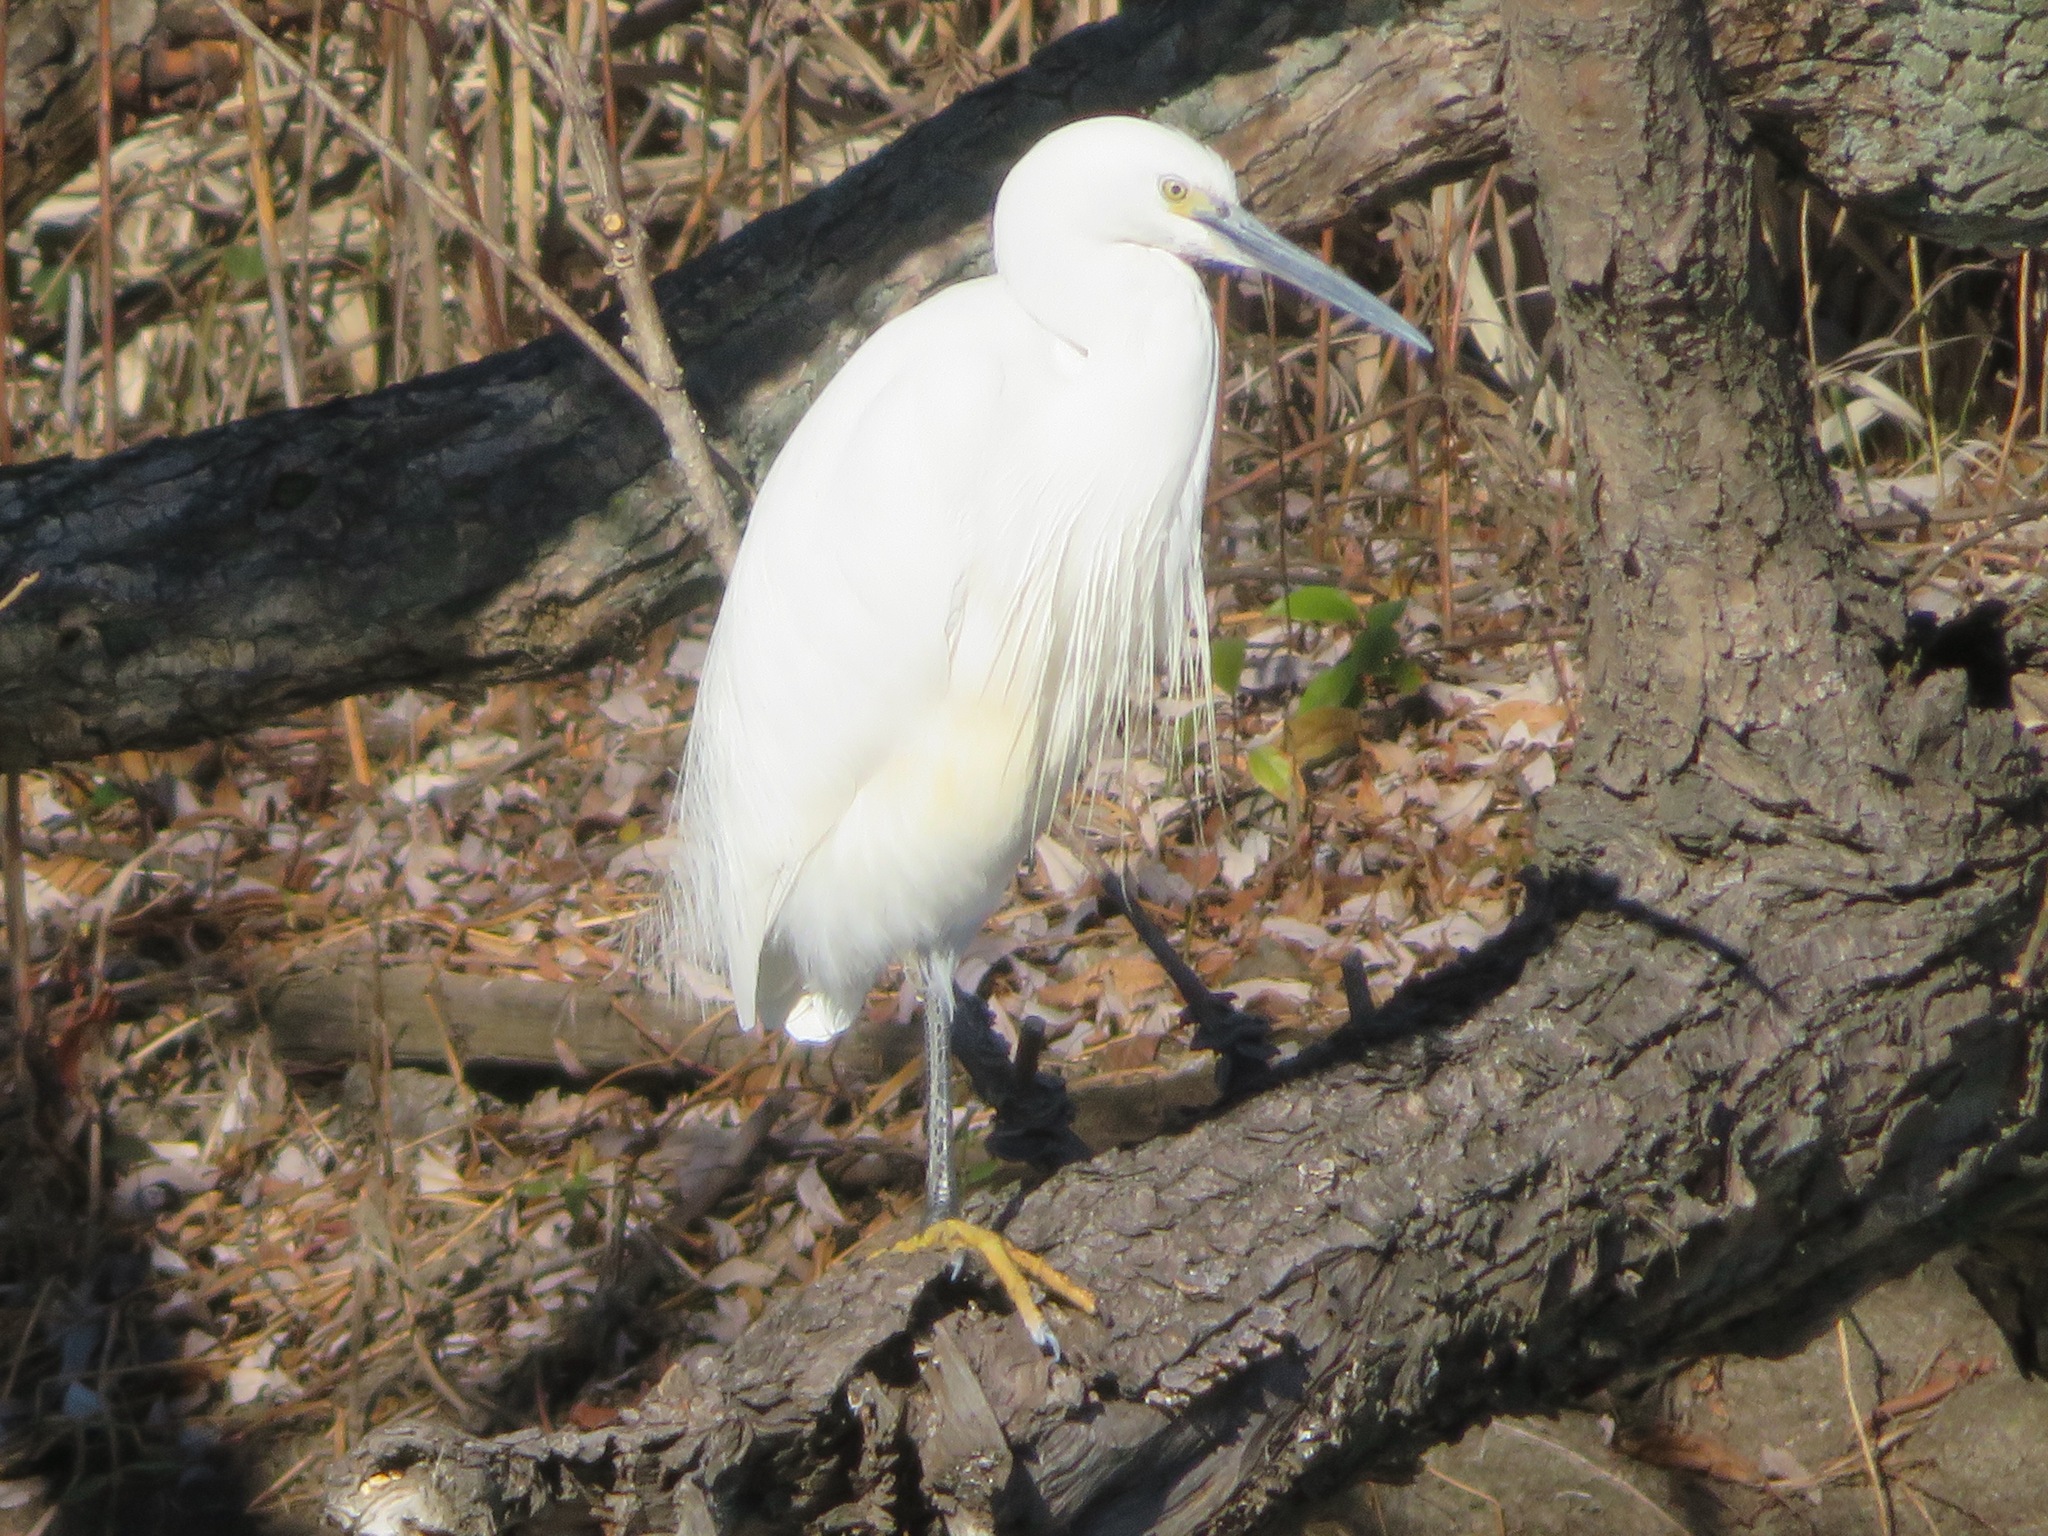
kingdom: Animalia
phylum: Chordata
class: Aves
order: Pelecaniformes
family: Ardeidae
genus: Egretta
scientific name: Egretta garzetta
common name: Little egret
